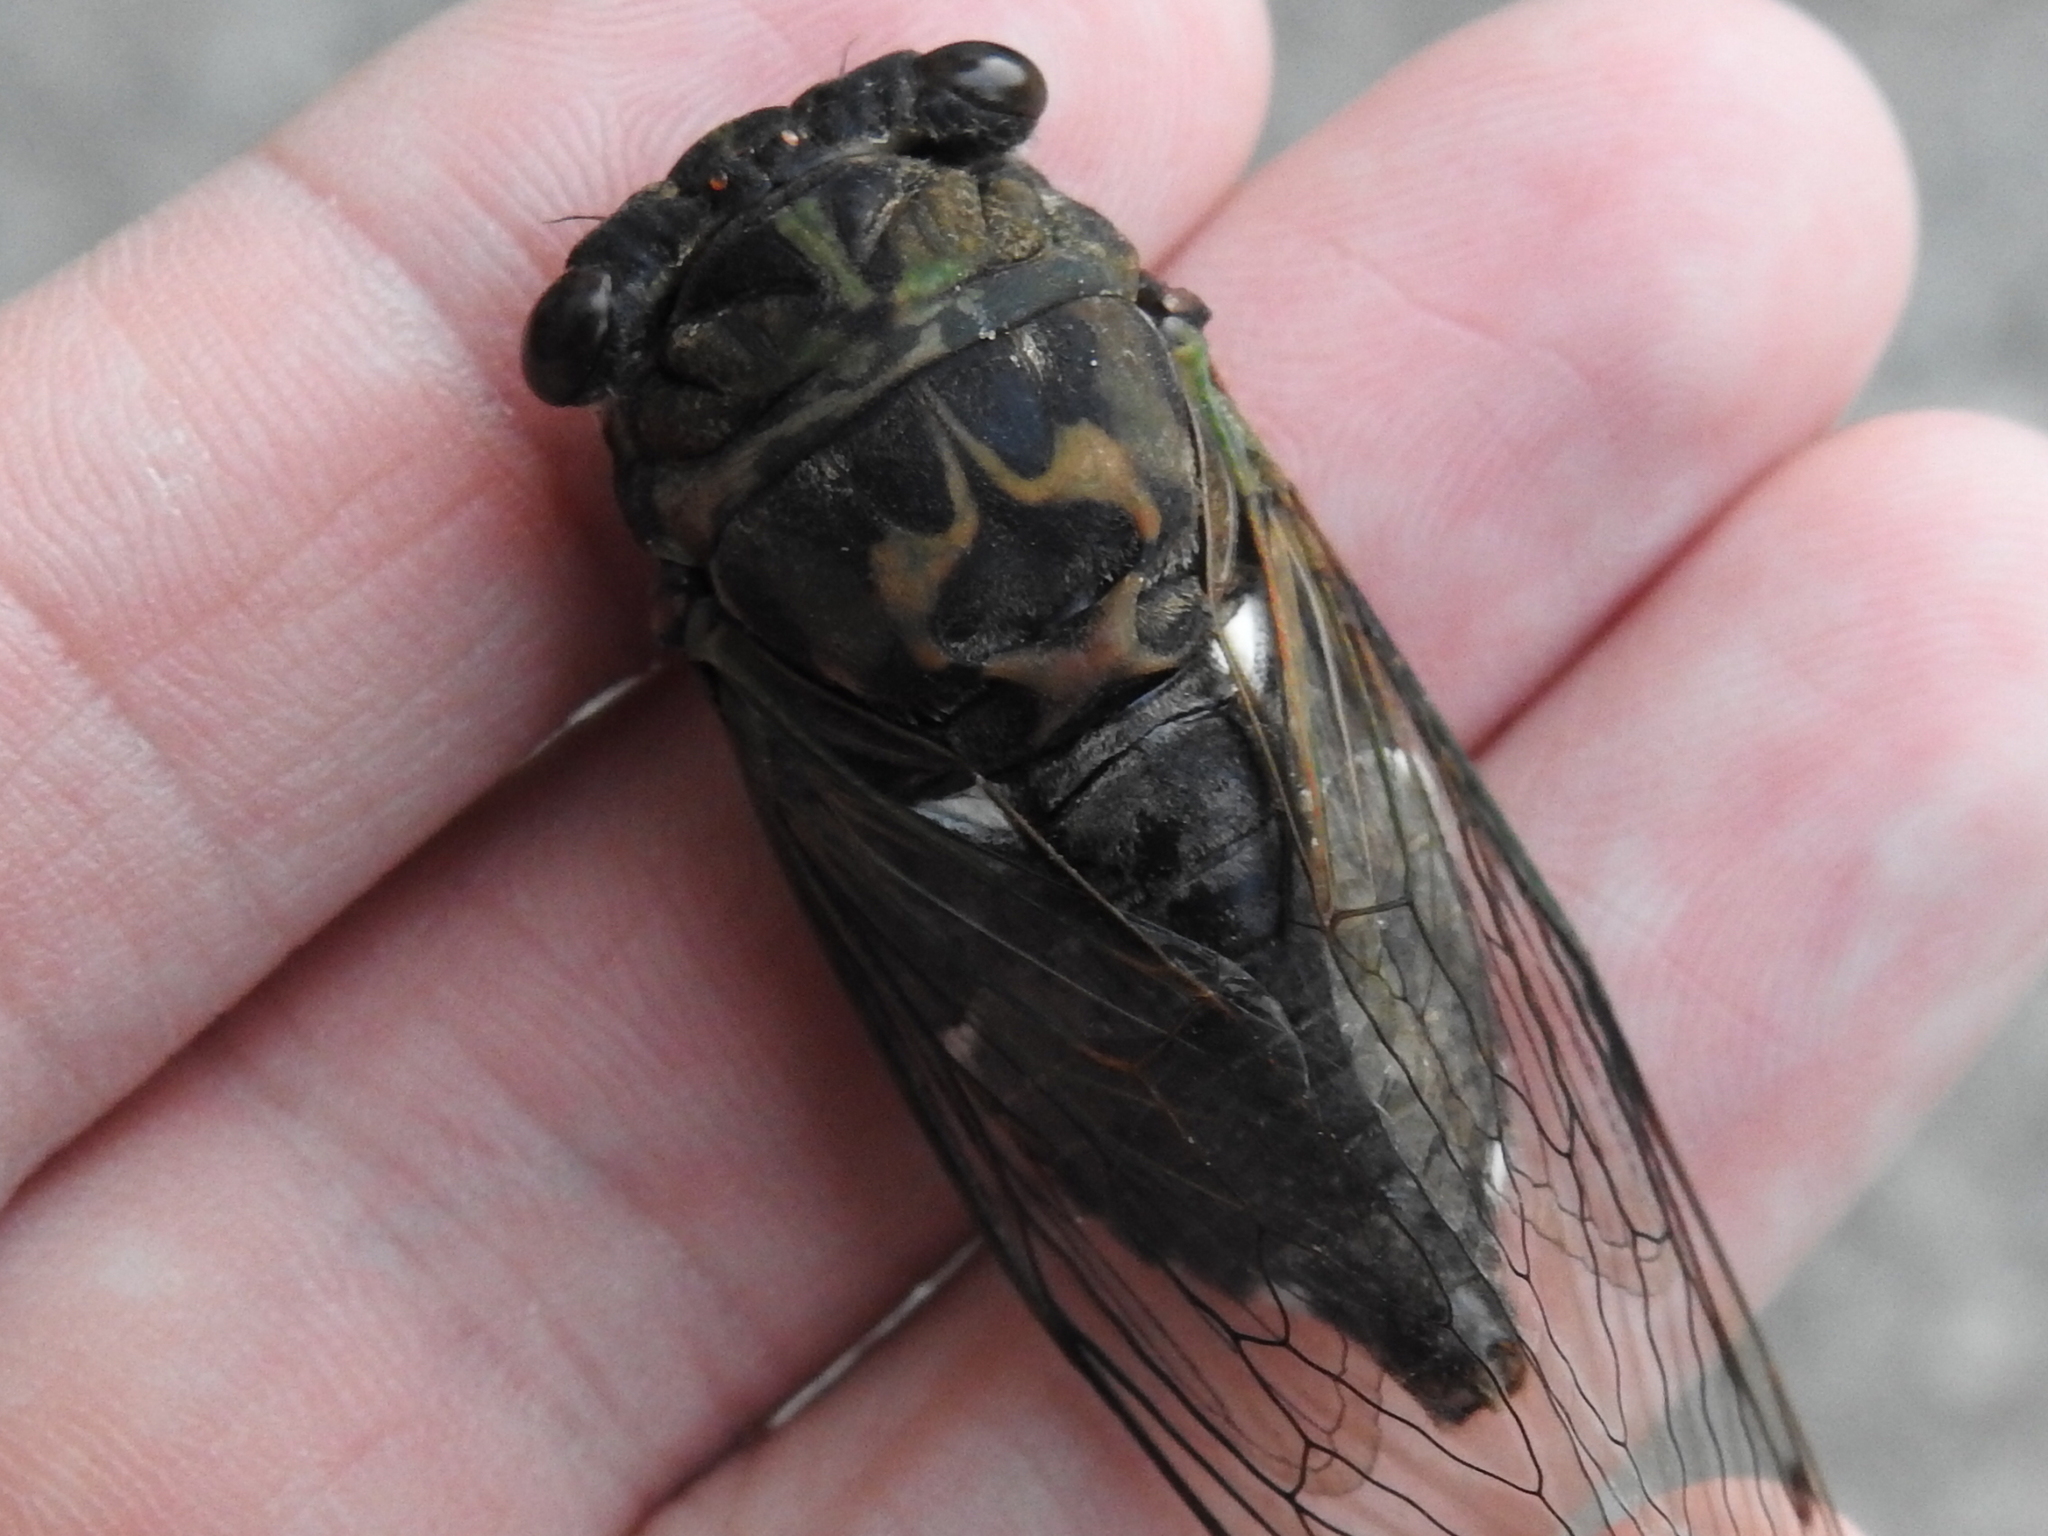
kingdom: Animalia
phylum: Arthropoda
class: Insecta
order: Hemiptera
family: Cicadidae
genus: Neotibicen
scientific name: Neotibicen pruinosus
